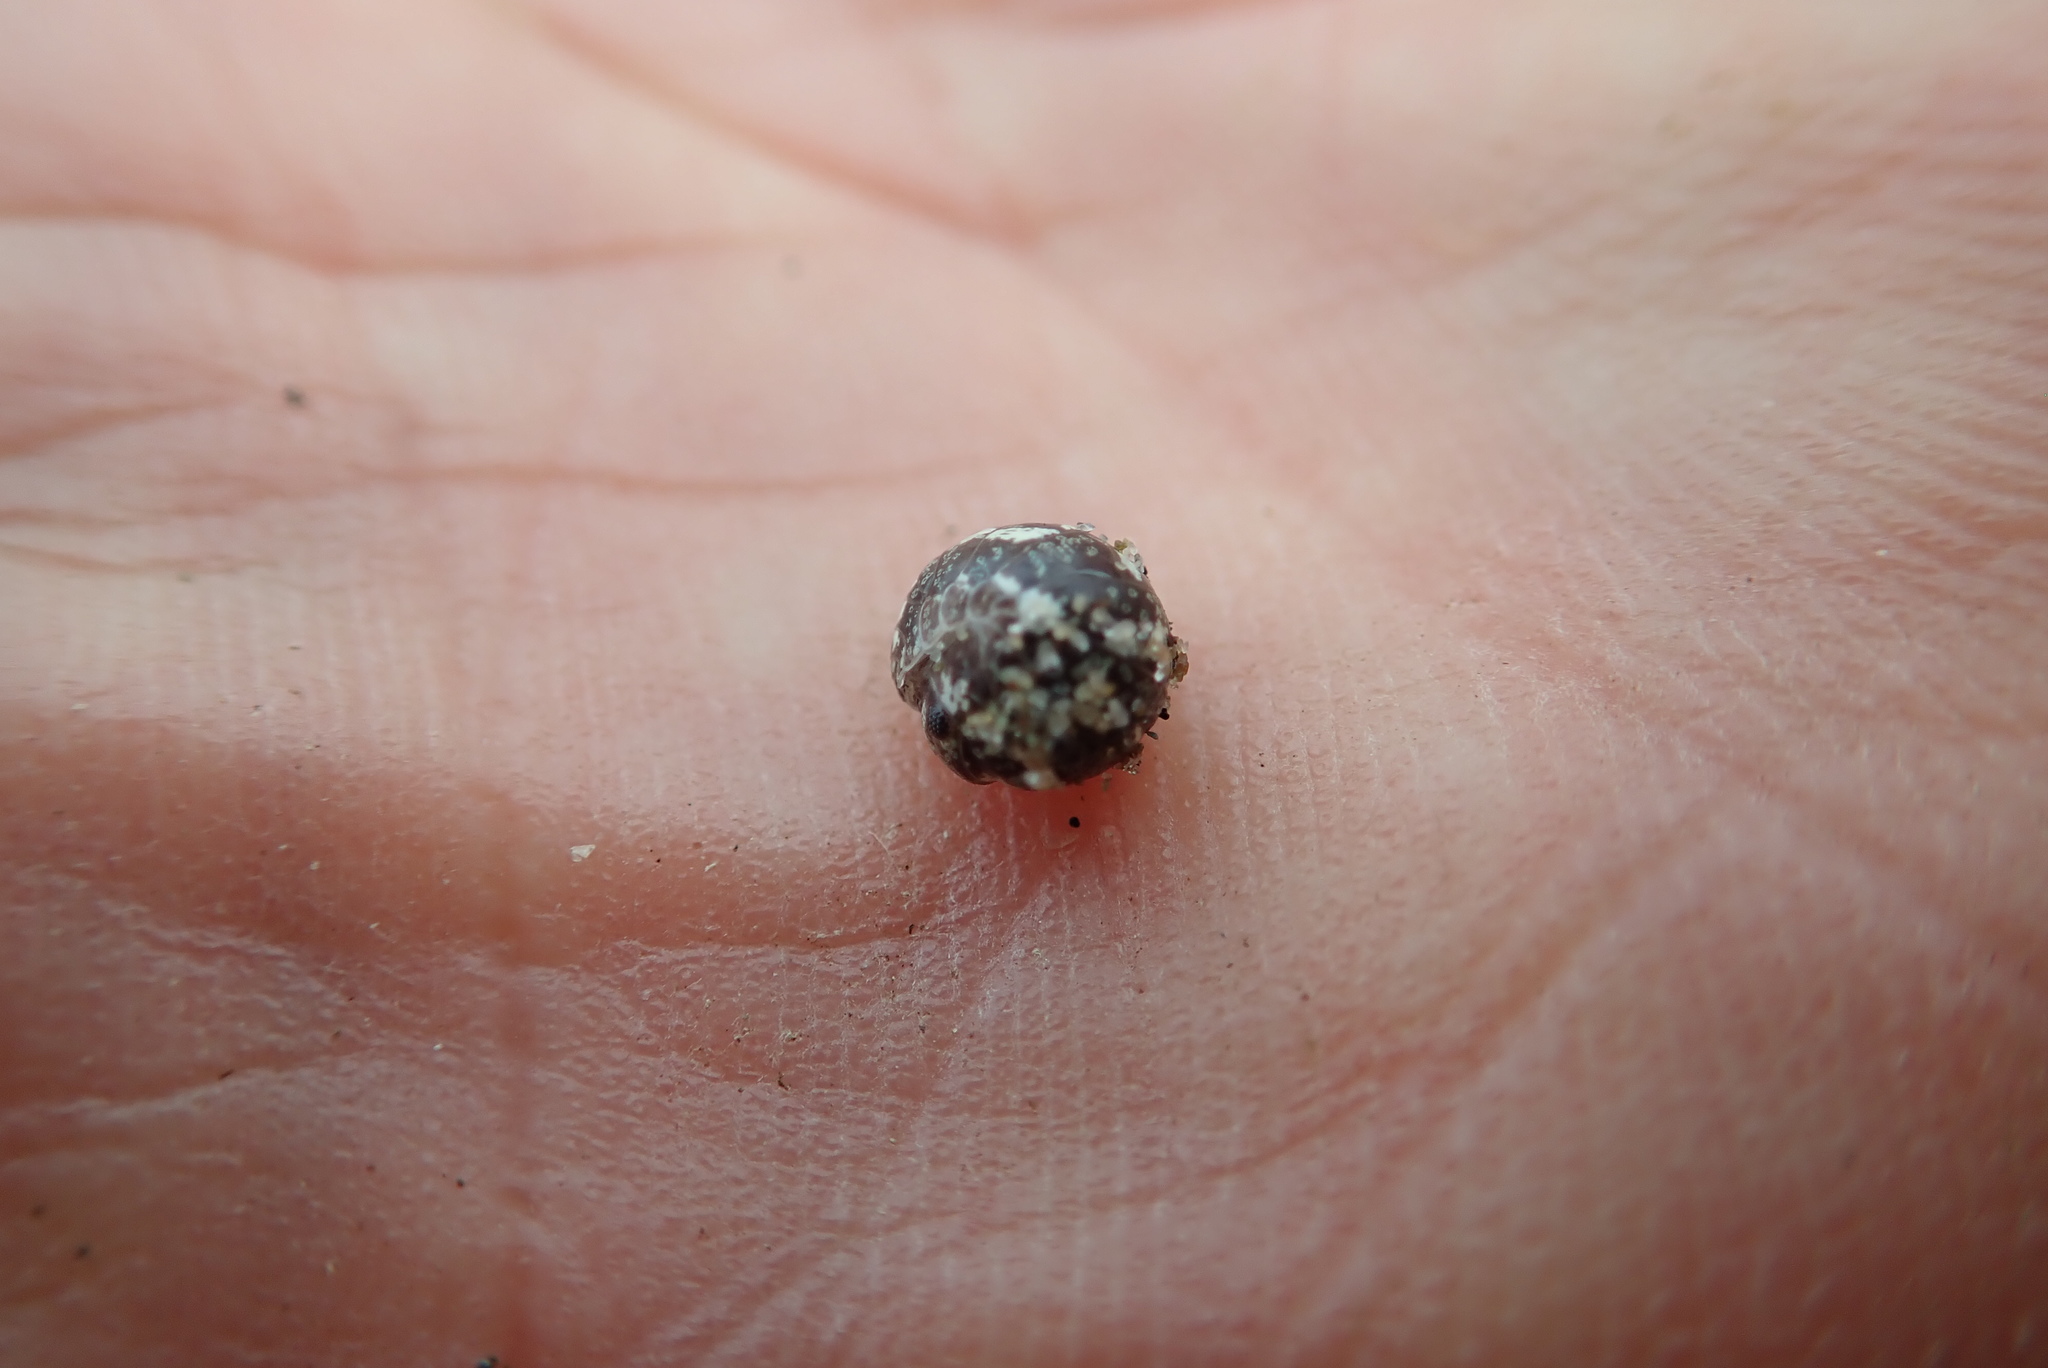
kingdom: Animalia
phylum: Arthropoda
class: Malacostraca
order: Isopoda
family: Tylidae
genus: Tylos
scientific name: Tylos neozelanicus
